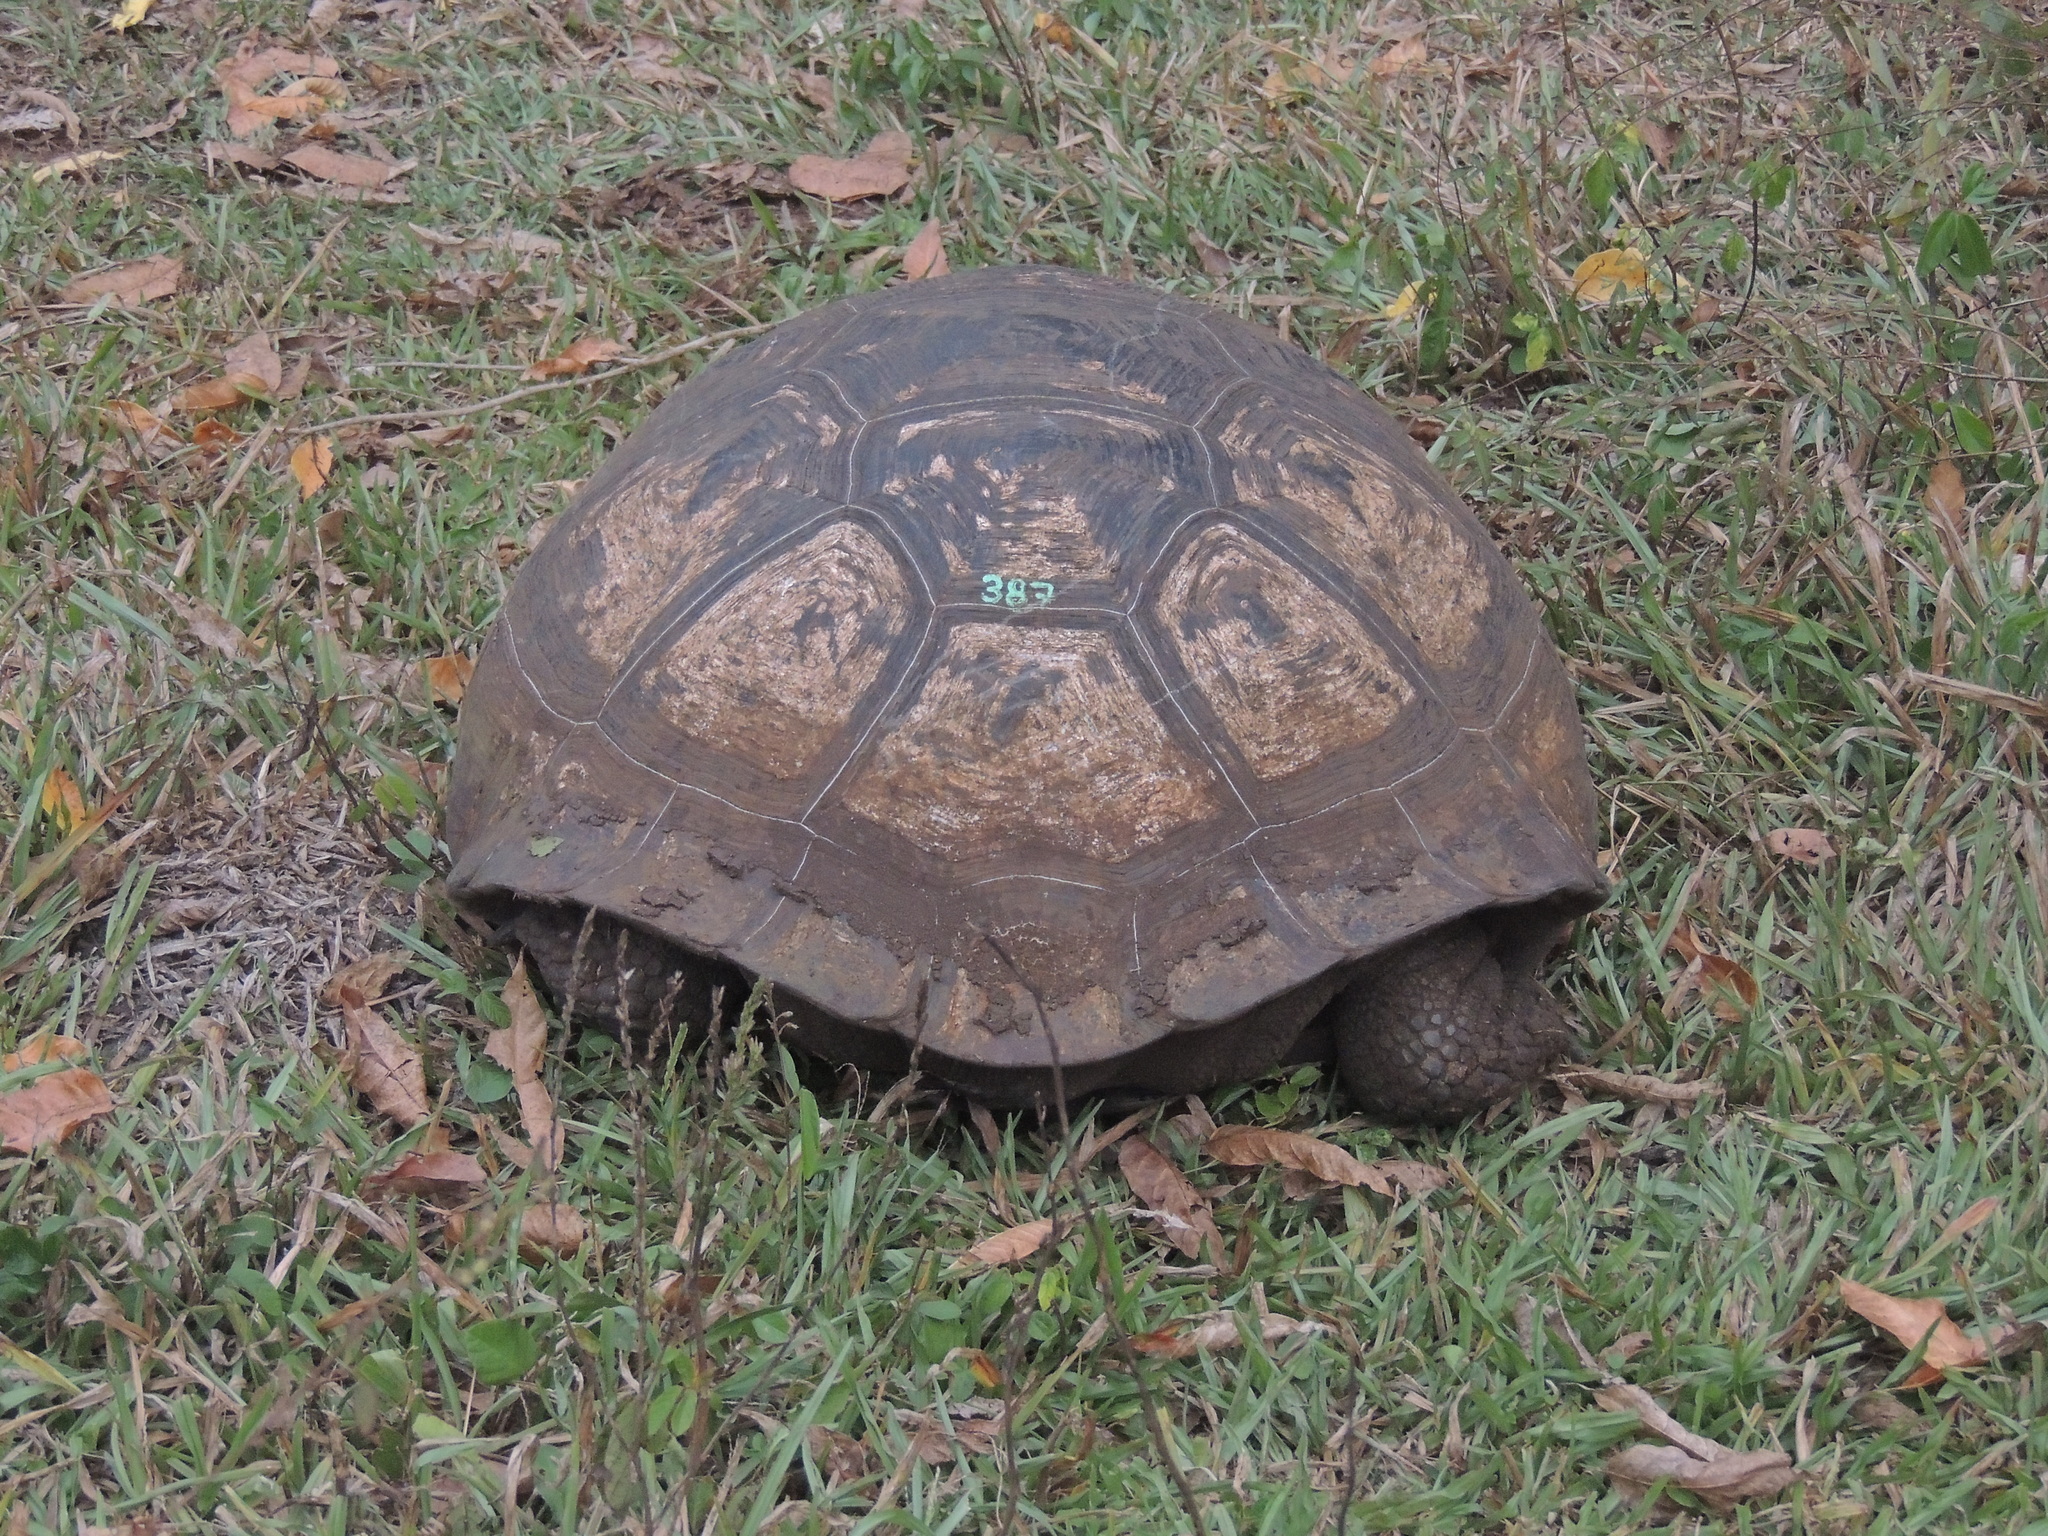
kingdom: Animalia
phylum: Chordata
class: Testudines
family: Testudinidae
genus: Chelonoidis
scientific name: Chelonoidis porteri
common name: Indefatigable island giant tortoise
